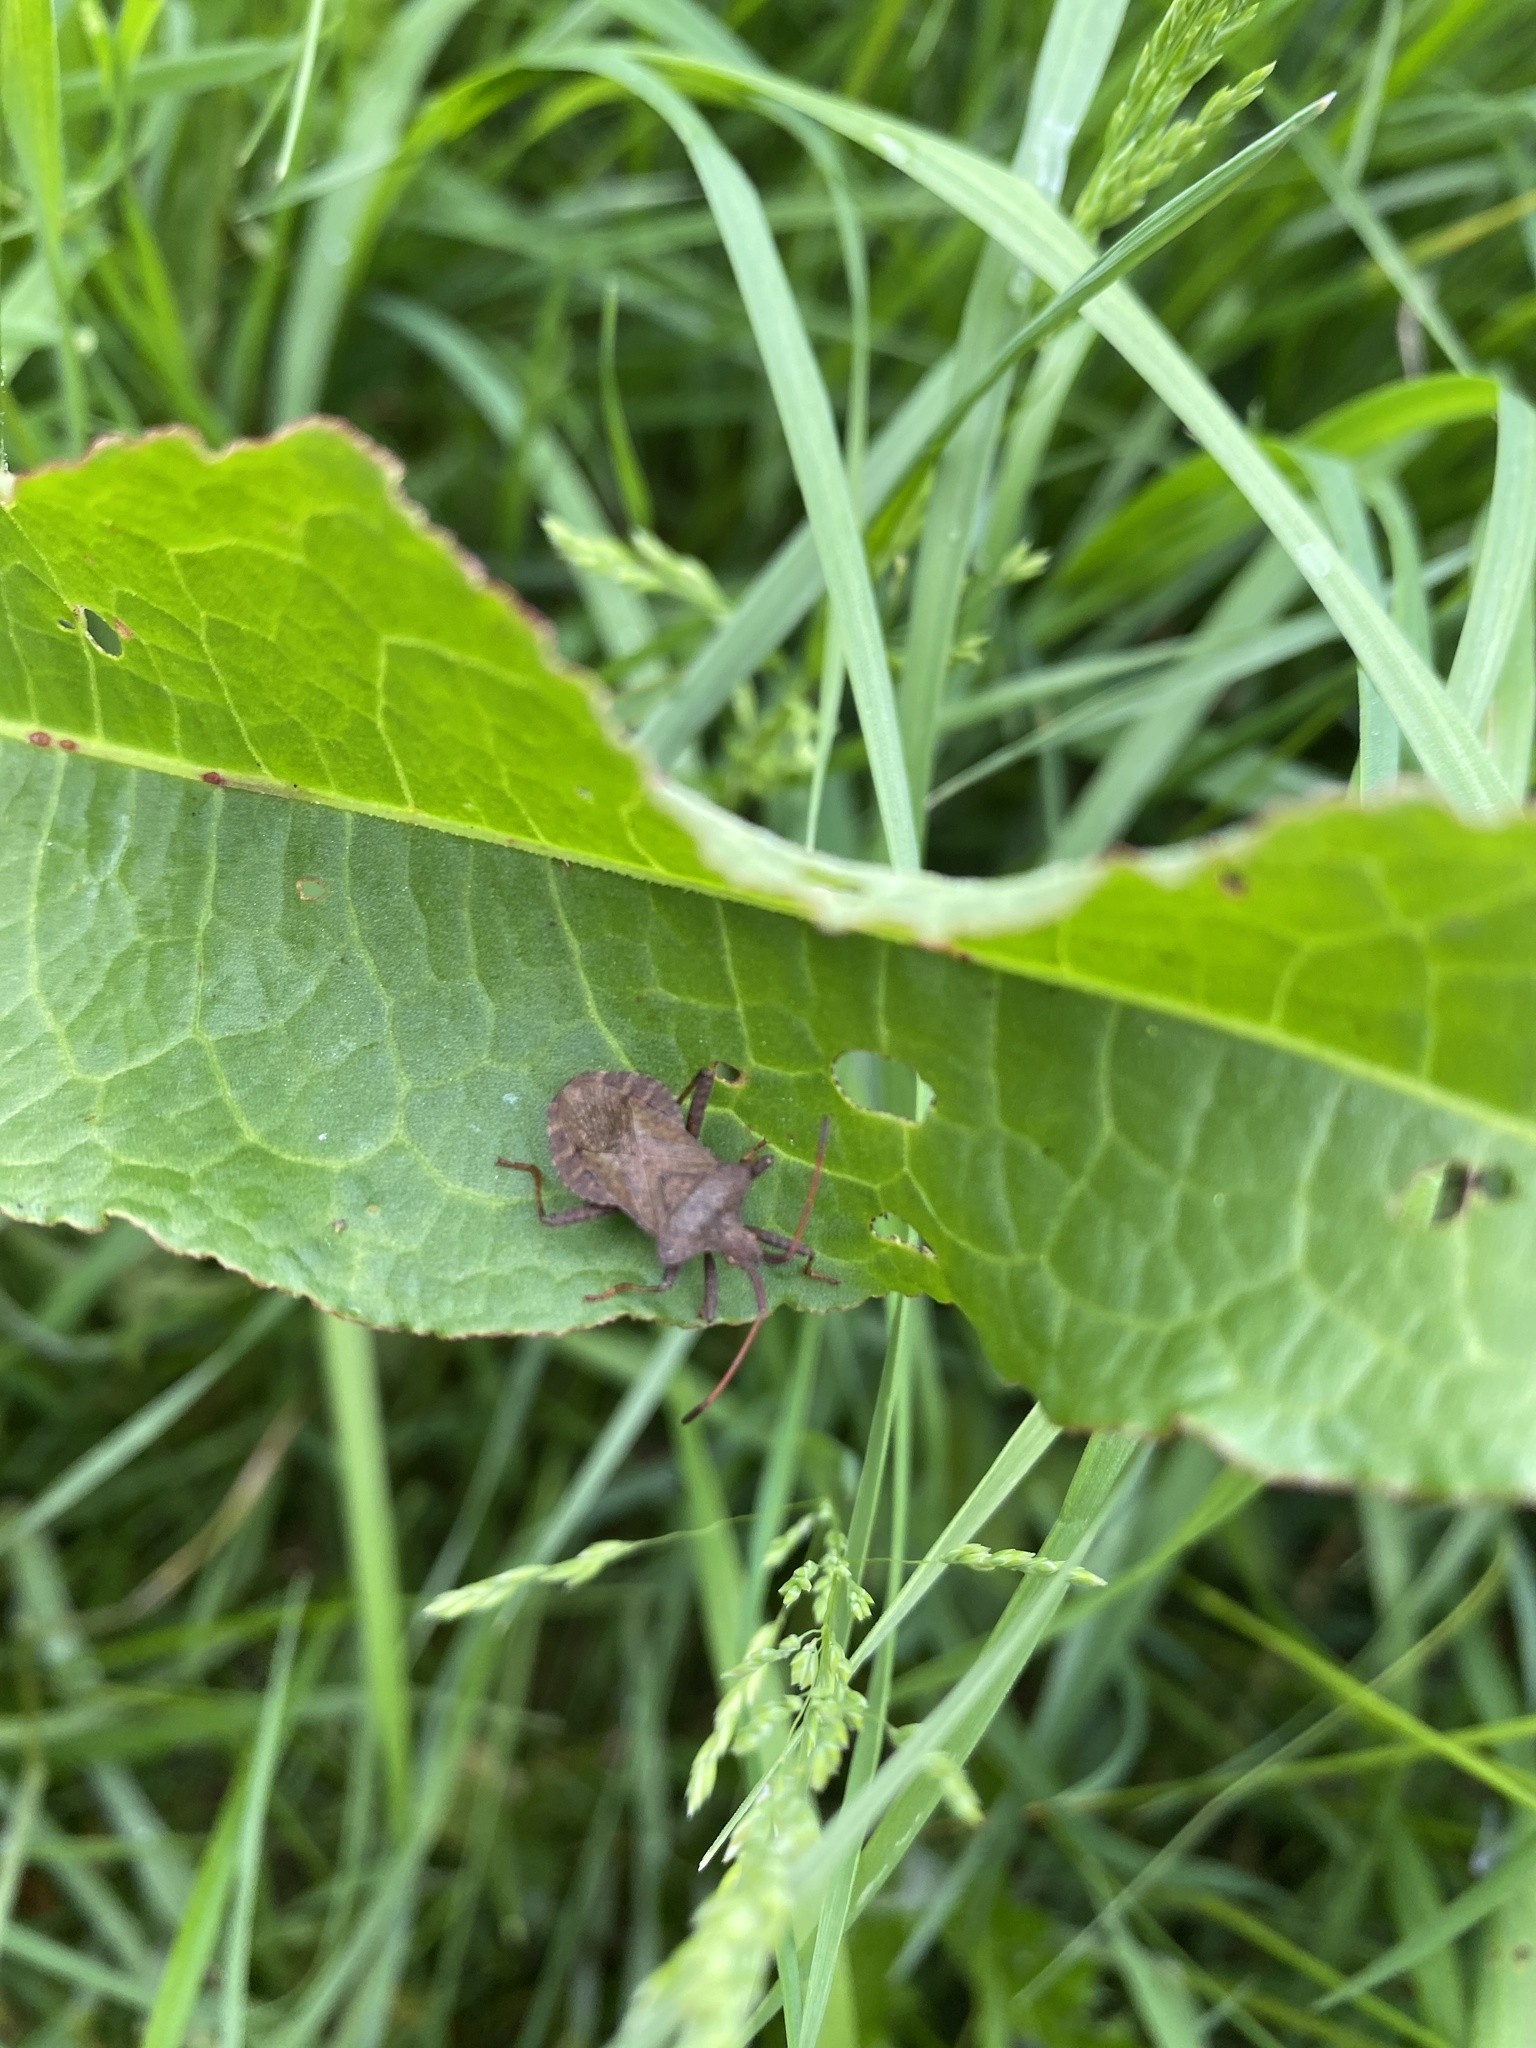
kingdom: Animalia
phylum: Arthropoda
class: Insecta
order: Hemiptera
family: Coreidae
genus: Coreus
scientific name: Coreus marginatus
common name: Dock bug
